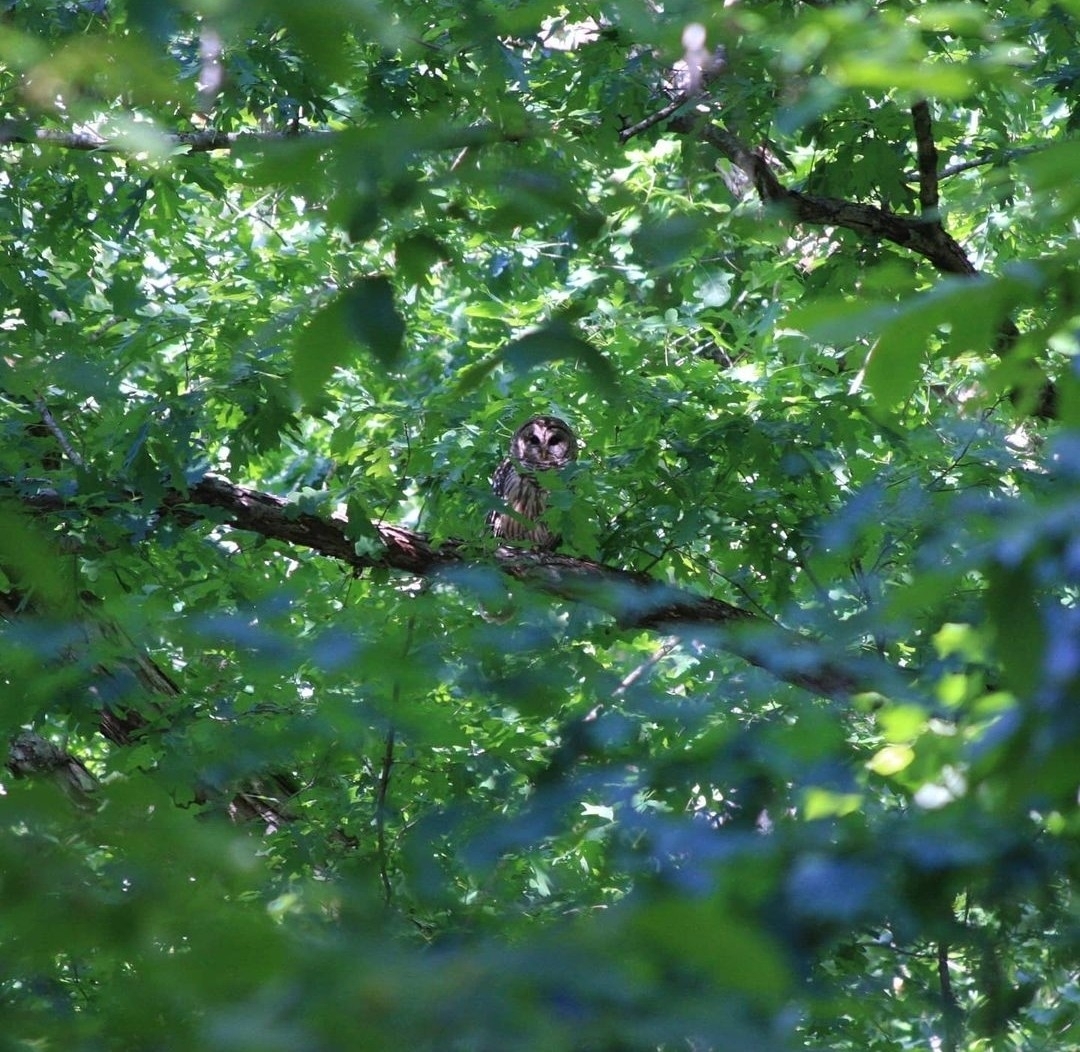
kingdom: Animalia
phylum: Chordata
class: Aves
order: Strigiformes
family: Strigidae
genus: Strix
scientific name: Strix varia
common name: Barred owl
